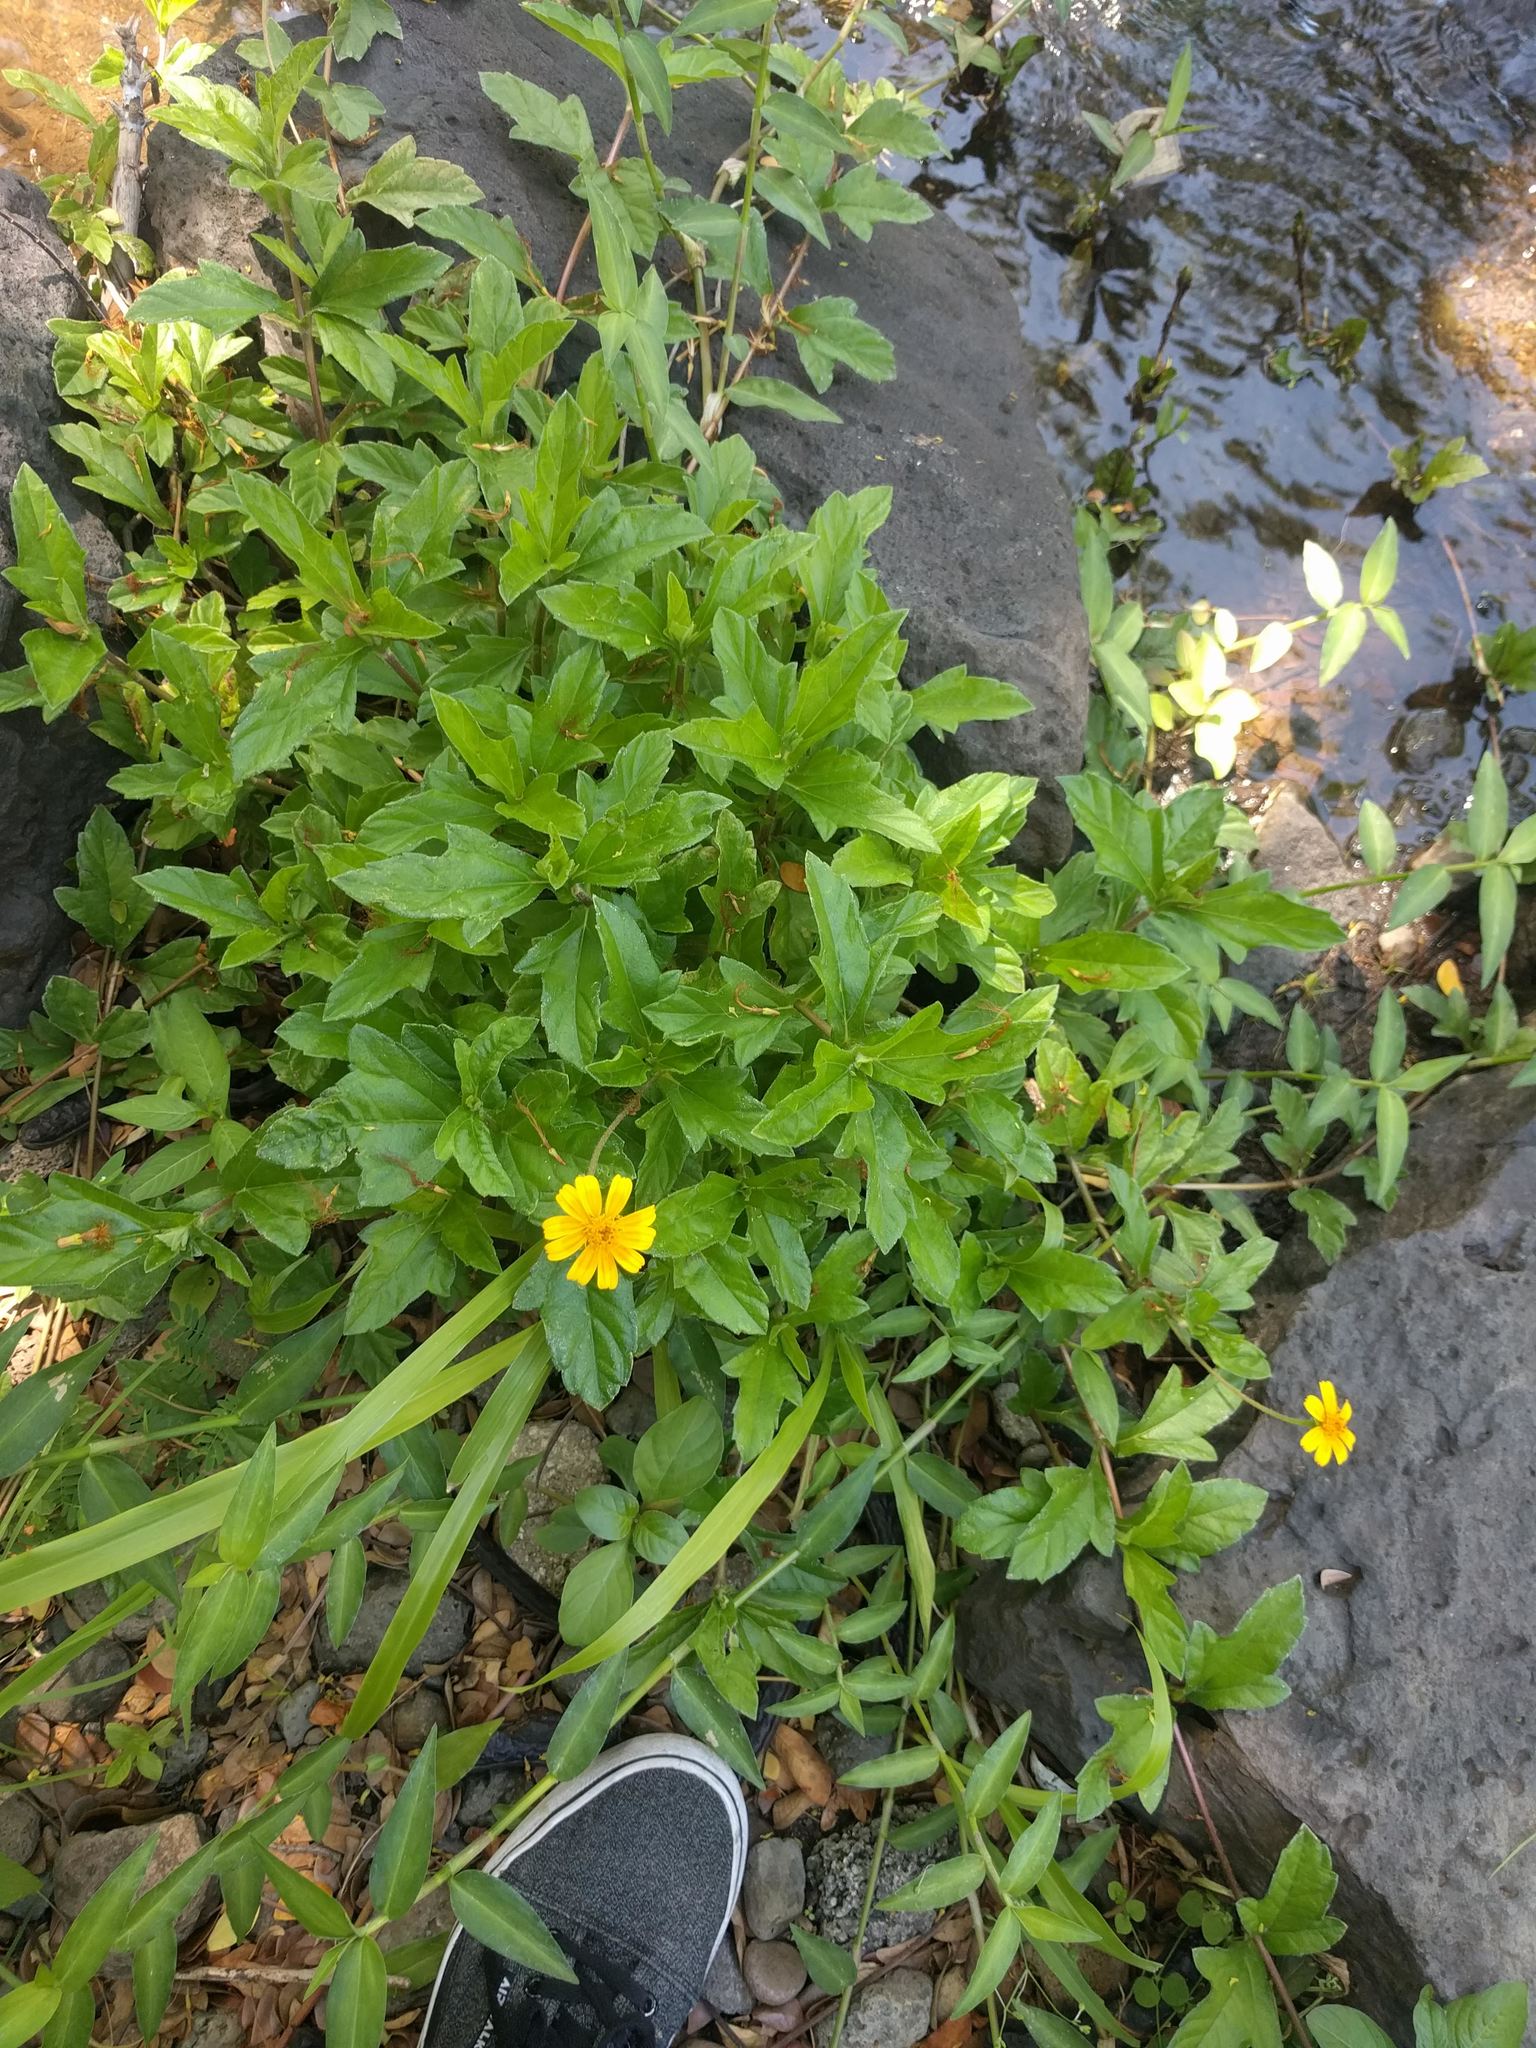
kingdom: Plantae
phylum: Tracheophyta
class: Magnoliopsida
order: Asterales
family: Asteraceae
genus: Sphagneticola
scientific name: Sphagneticola trilobata
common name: Bay biscayne creeping-oxeye
